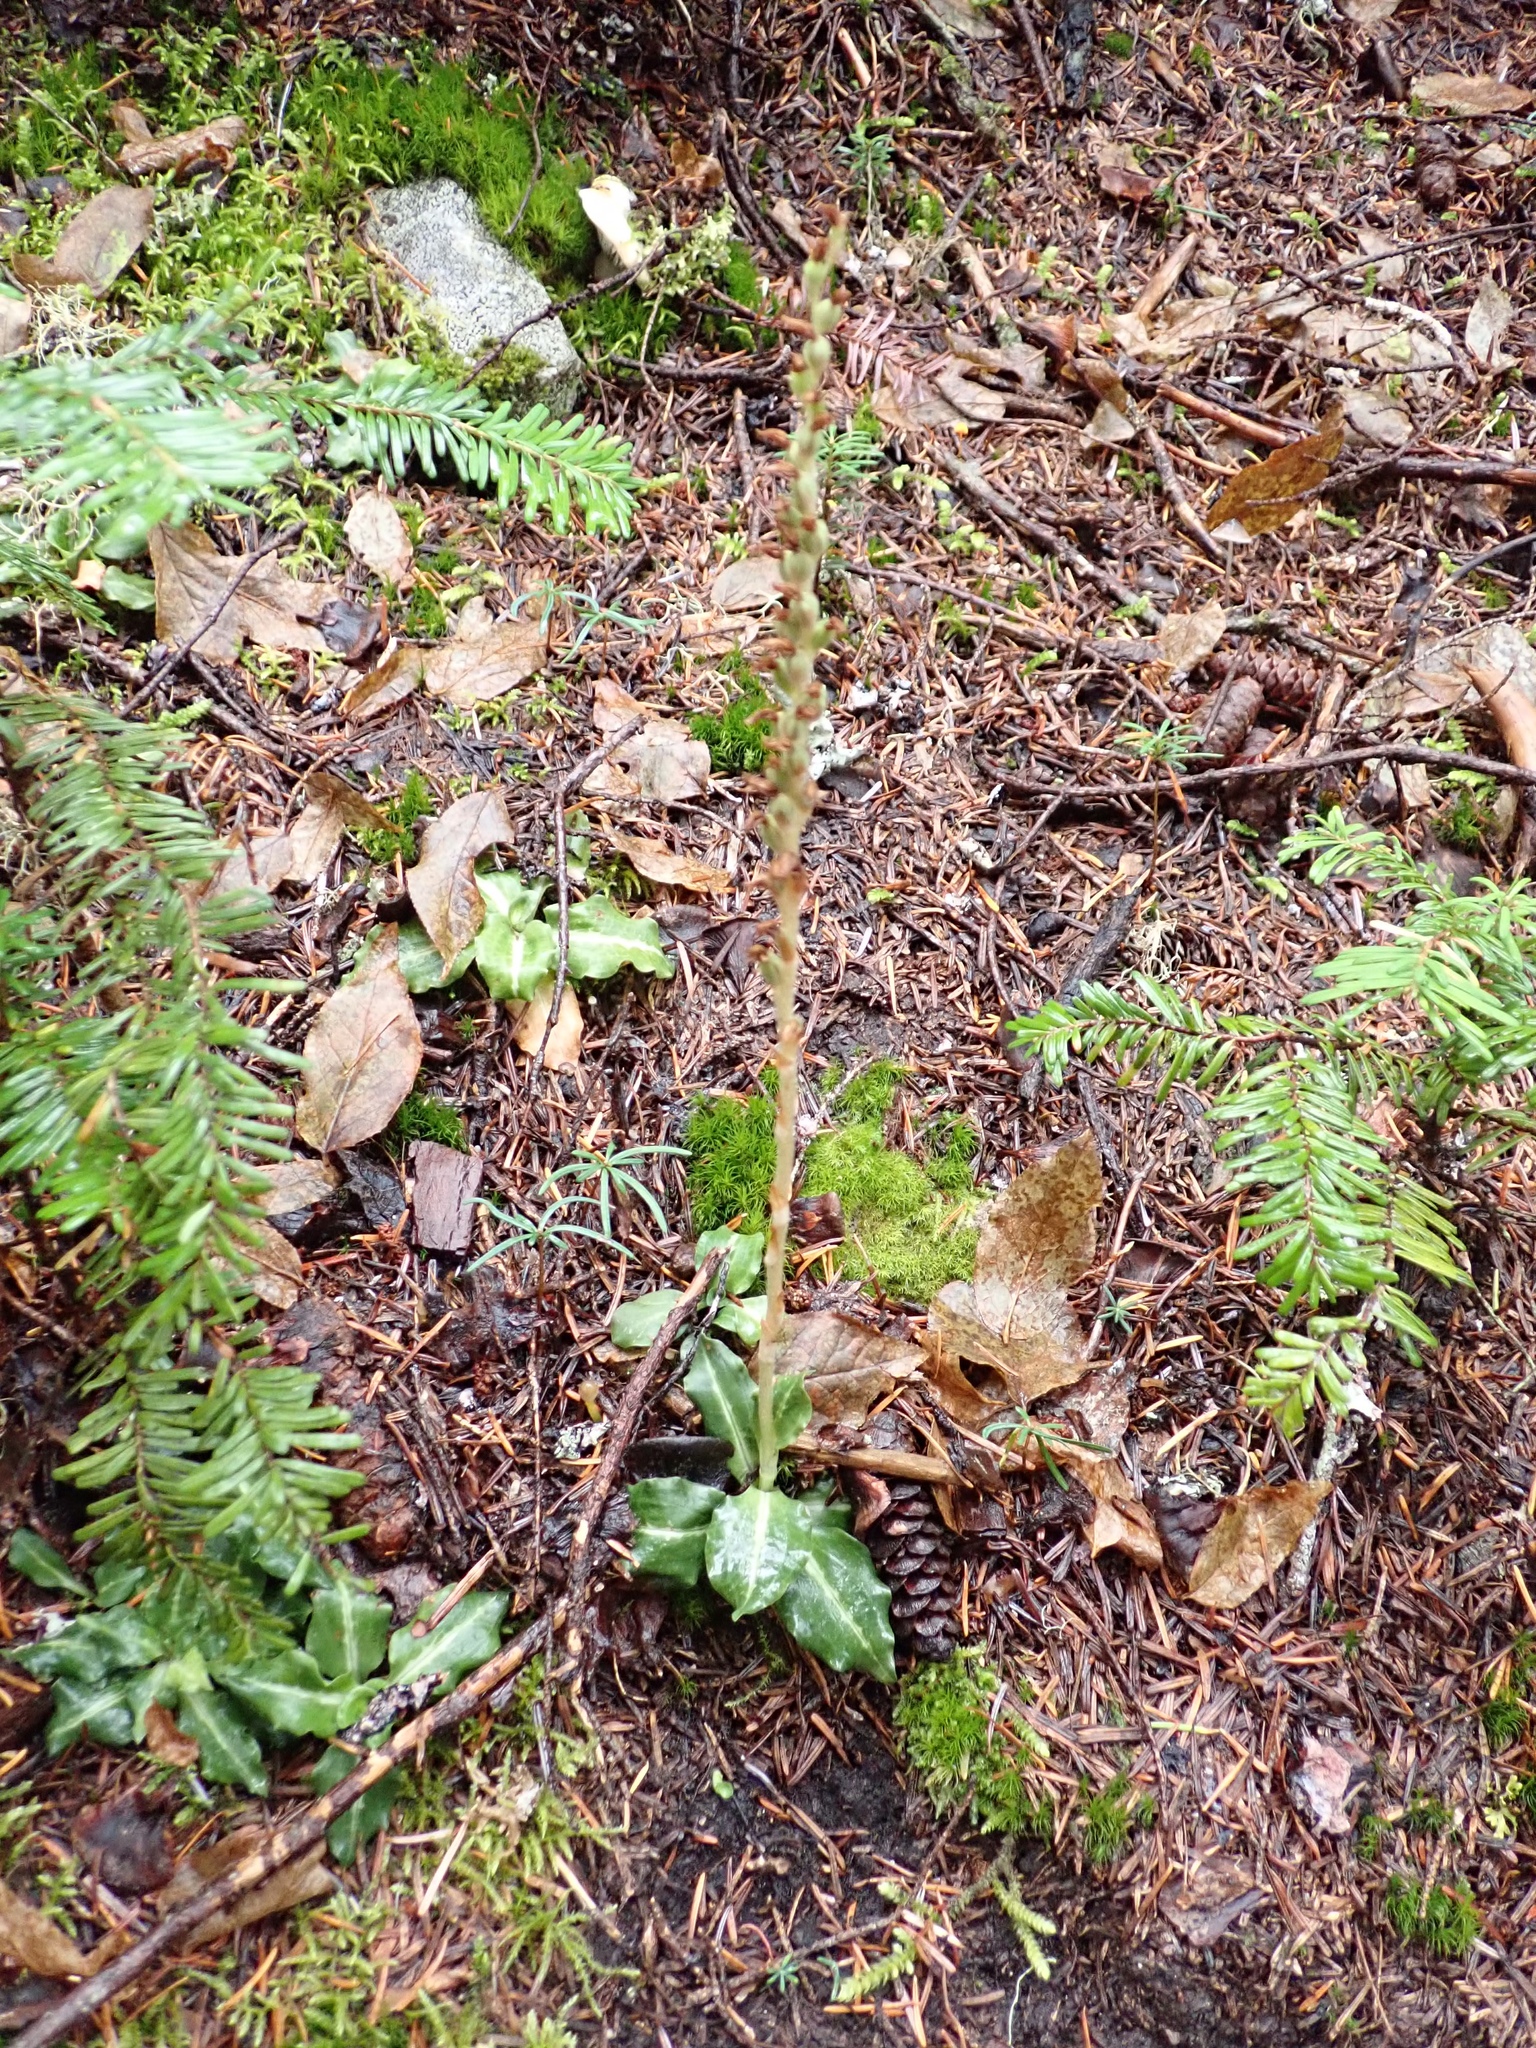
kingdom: Plantae
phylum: Tracheophyta
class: Liliopsida
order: Asparagales
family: Orchidaceae
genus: Goodyera
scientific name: Goodyera oblongifolia
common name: Giant rattlesnake-plantain
